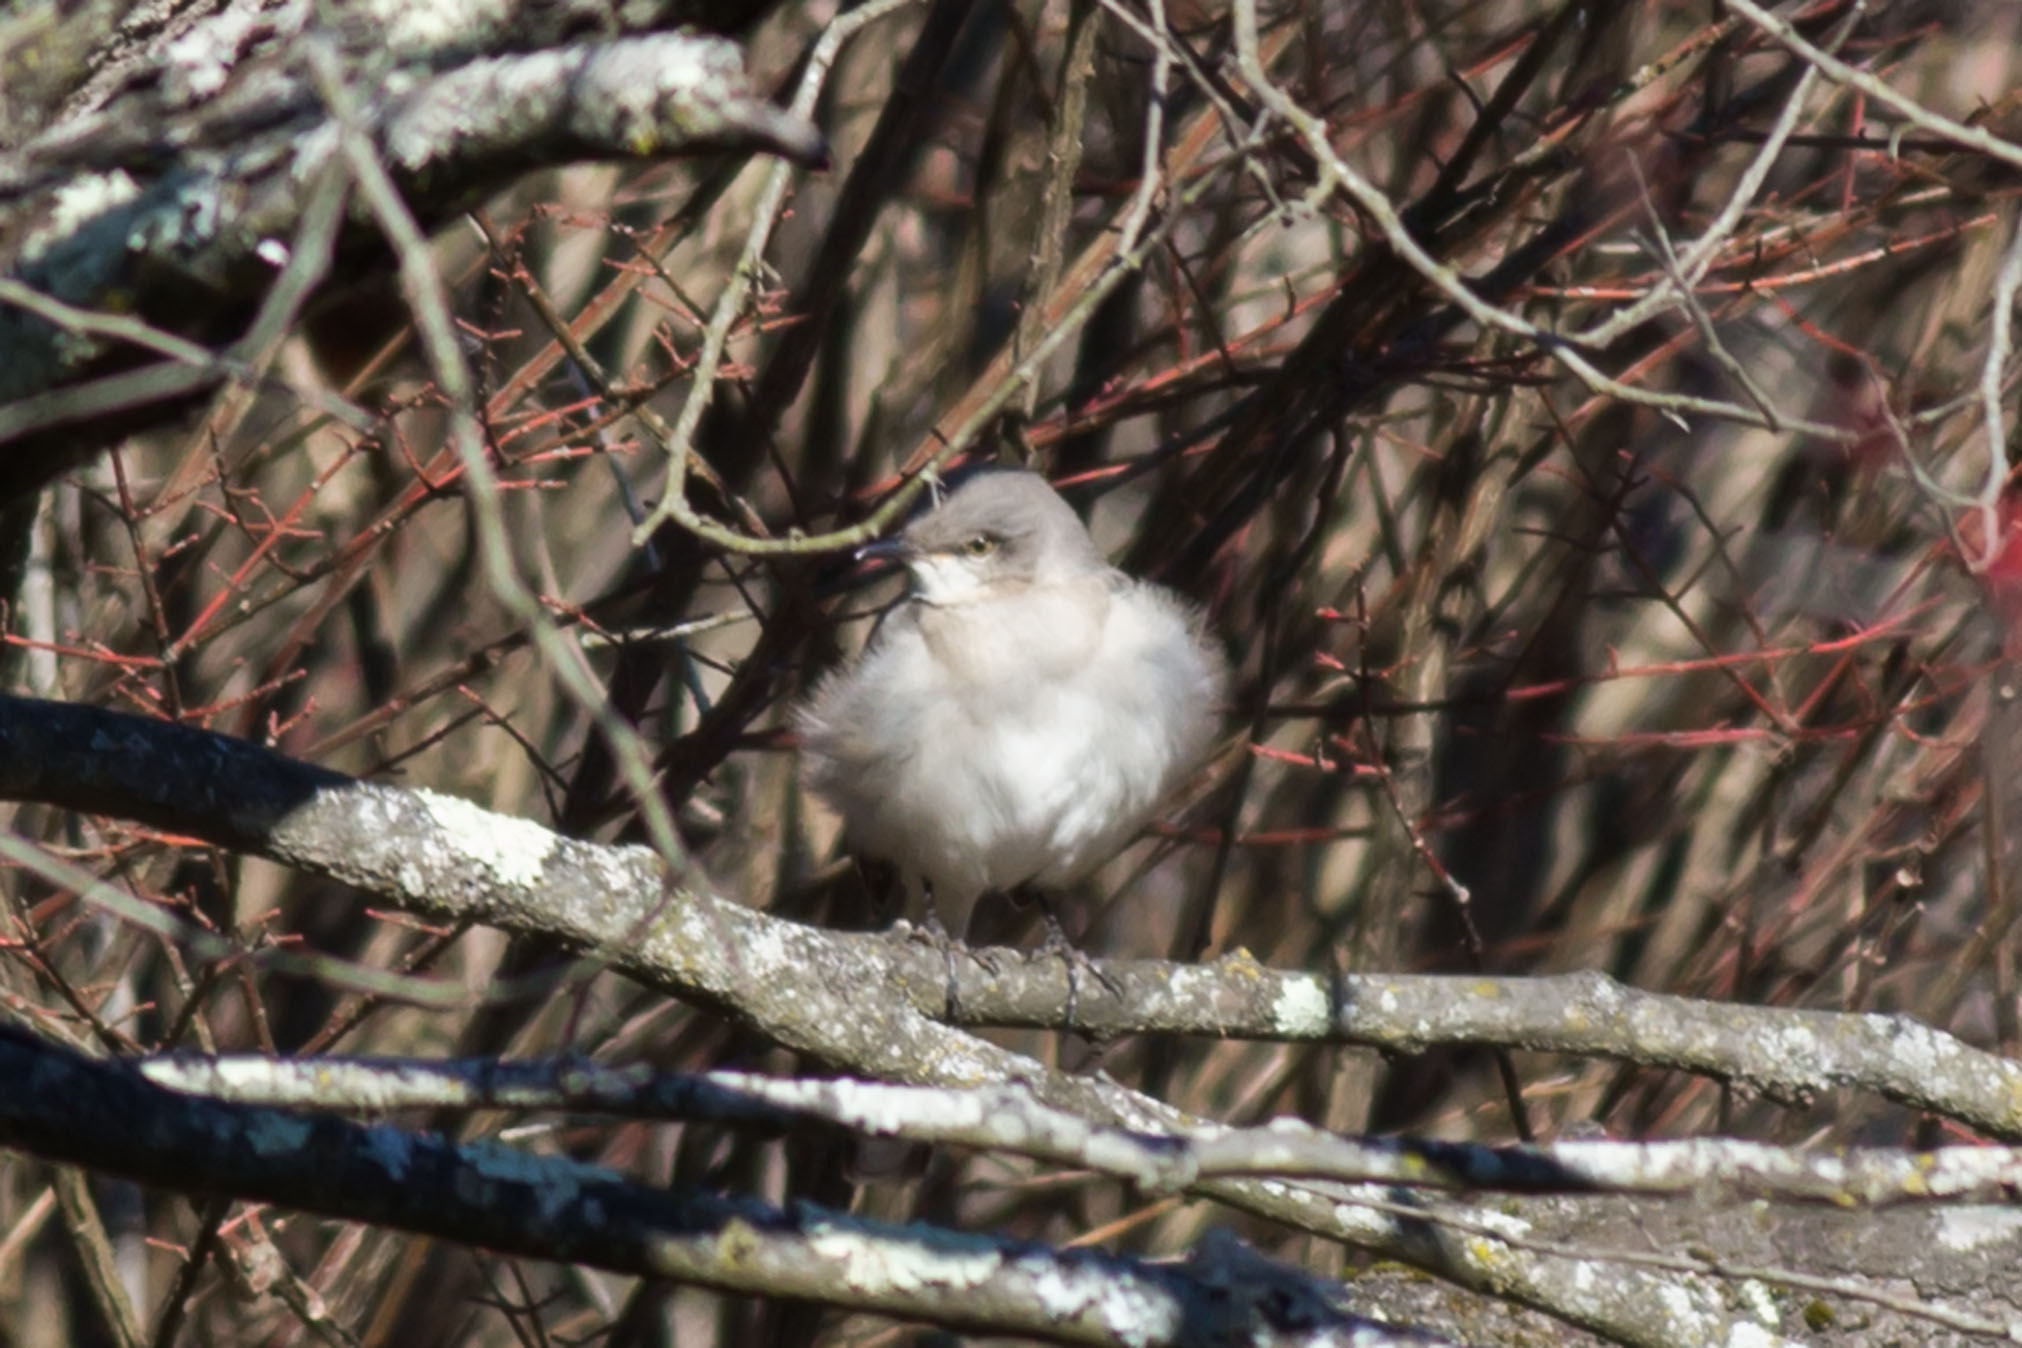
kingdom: Animalia
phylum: Chordata
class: Aves
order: Passeriformes
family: Mimidae
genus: Mimus
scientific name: Mimus polyglottos
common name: Northern mockingbird
